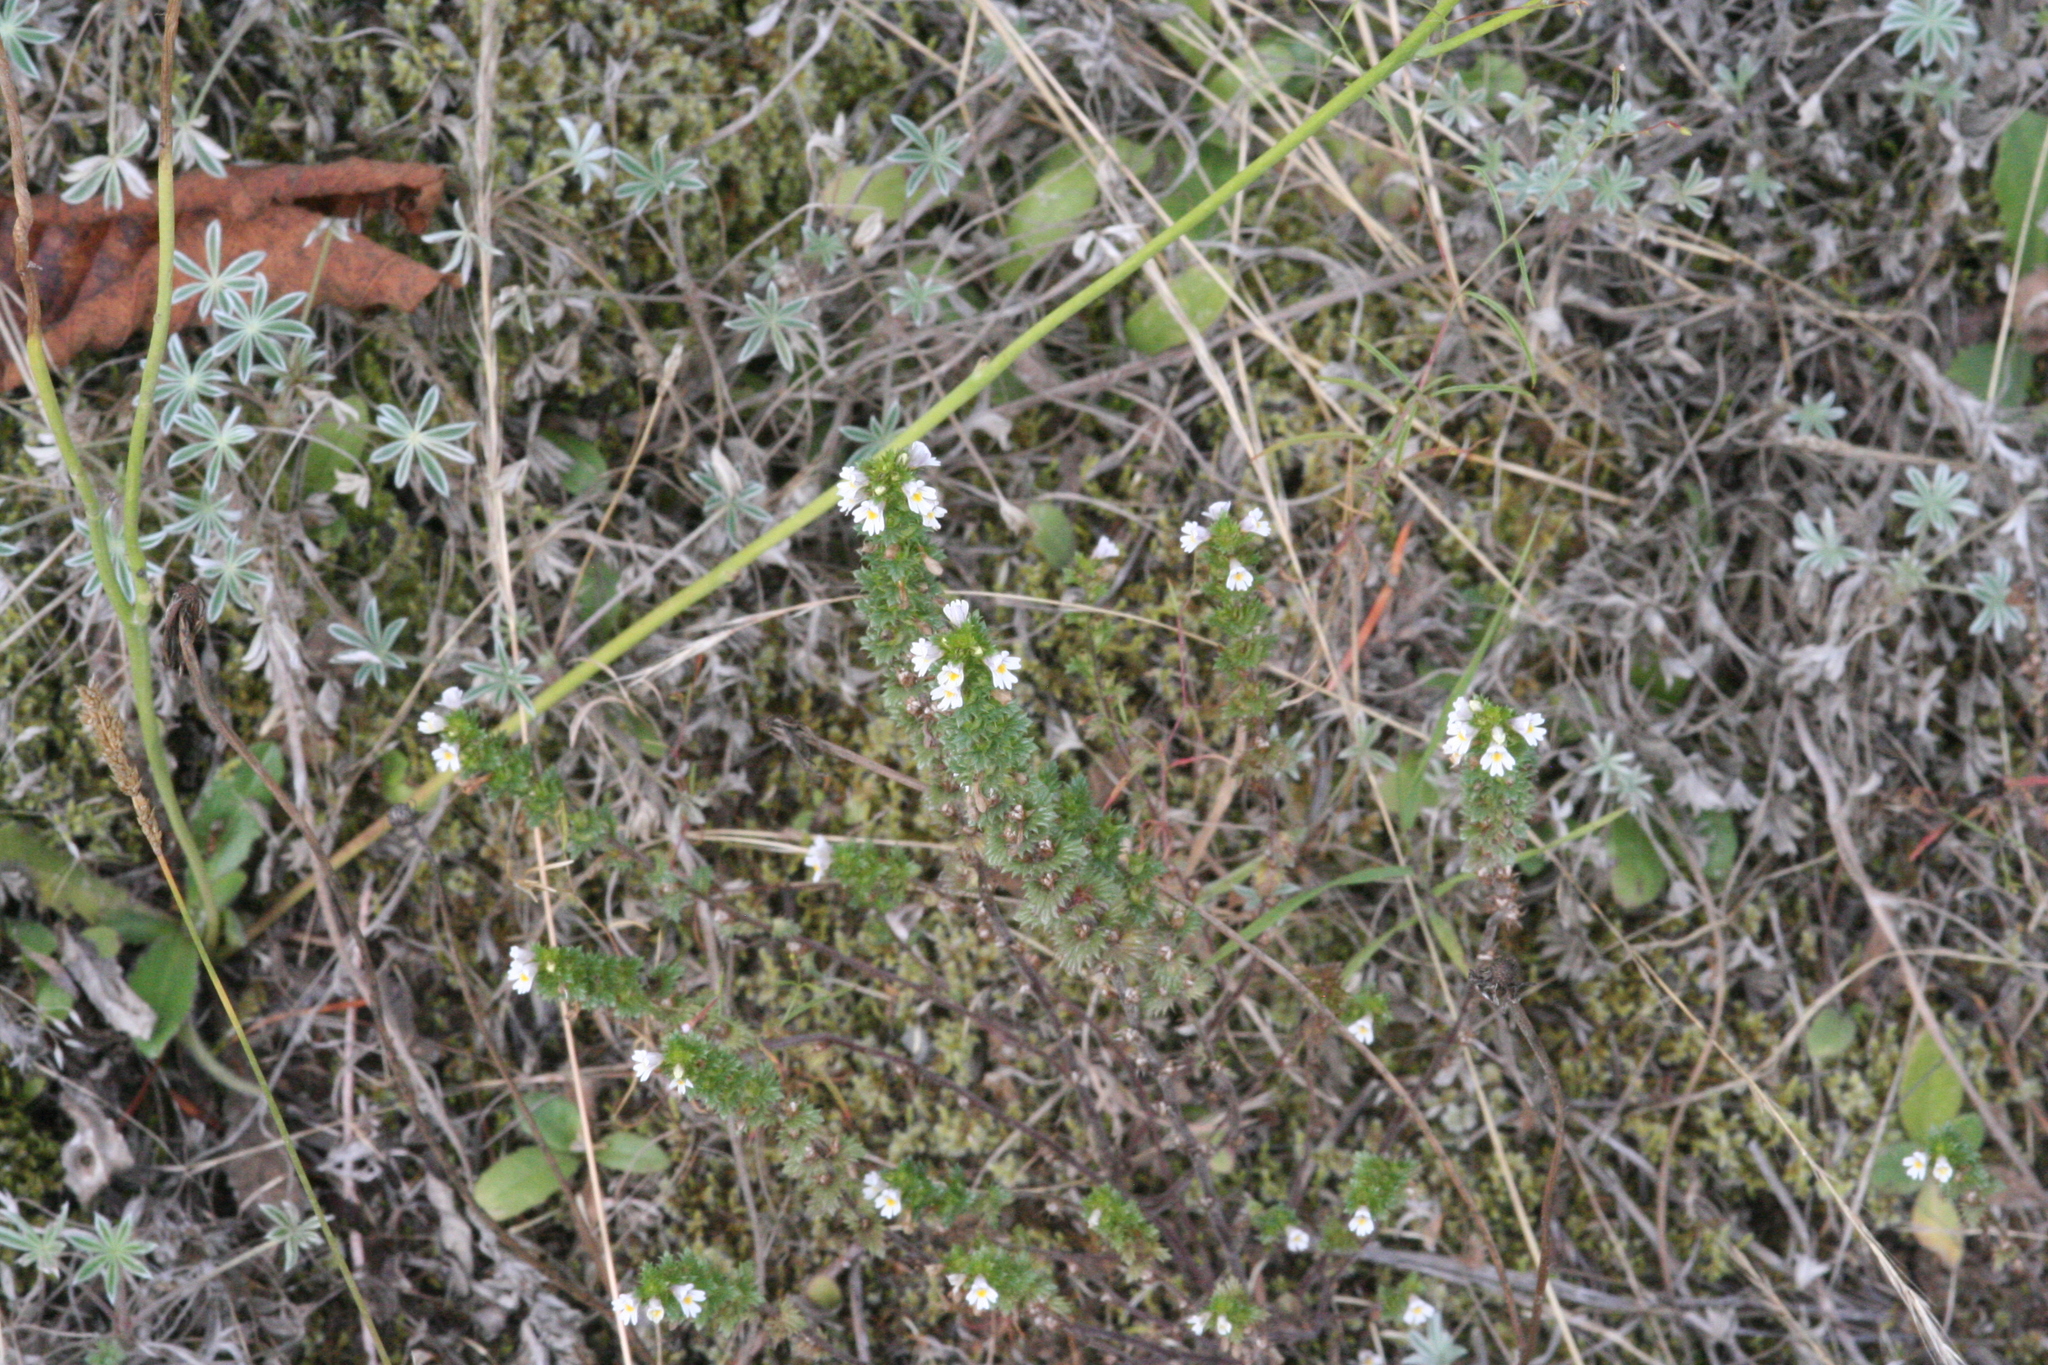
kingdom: Plantae
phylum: Tracheophyta
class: Magnoliopsida
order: Lamiales
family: Orobanchaceae
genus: Euphrasia
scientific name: Euphrasia nemorosa
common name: Common eyebright
